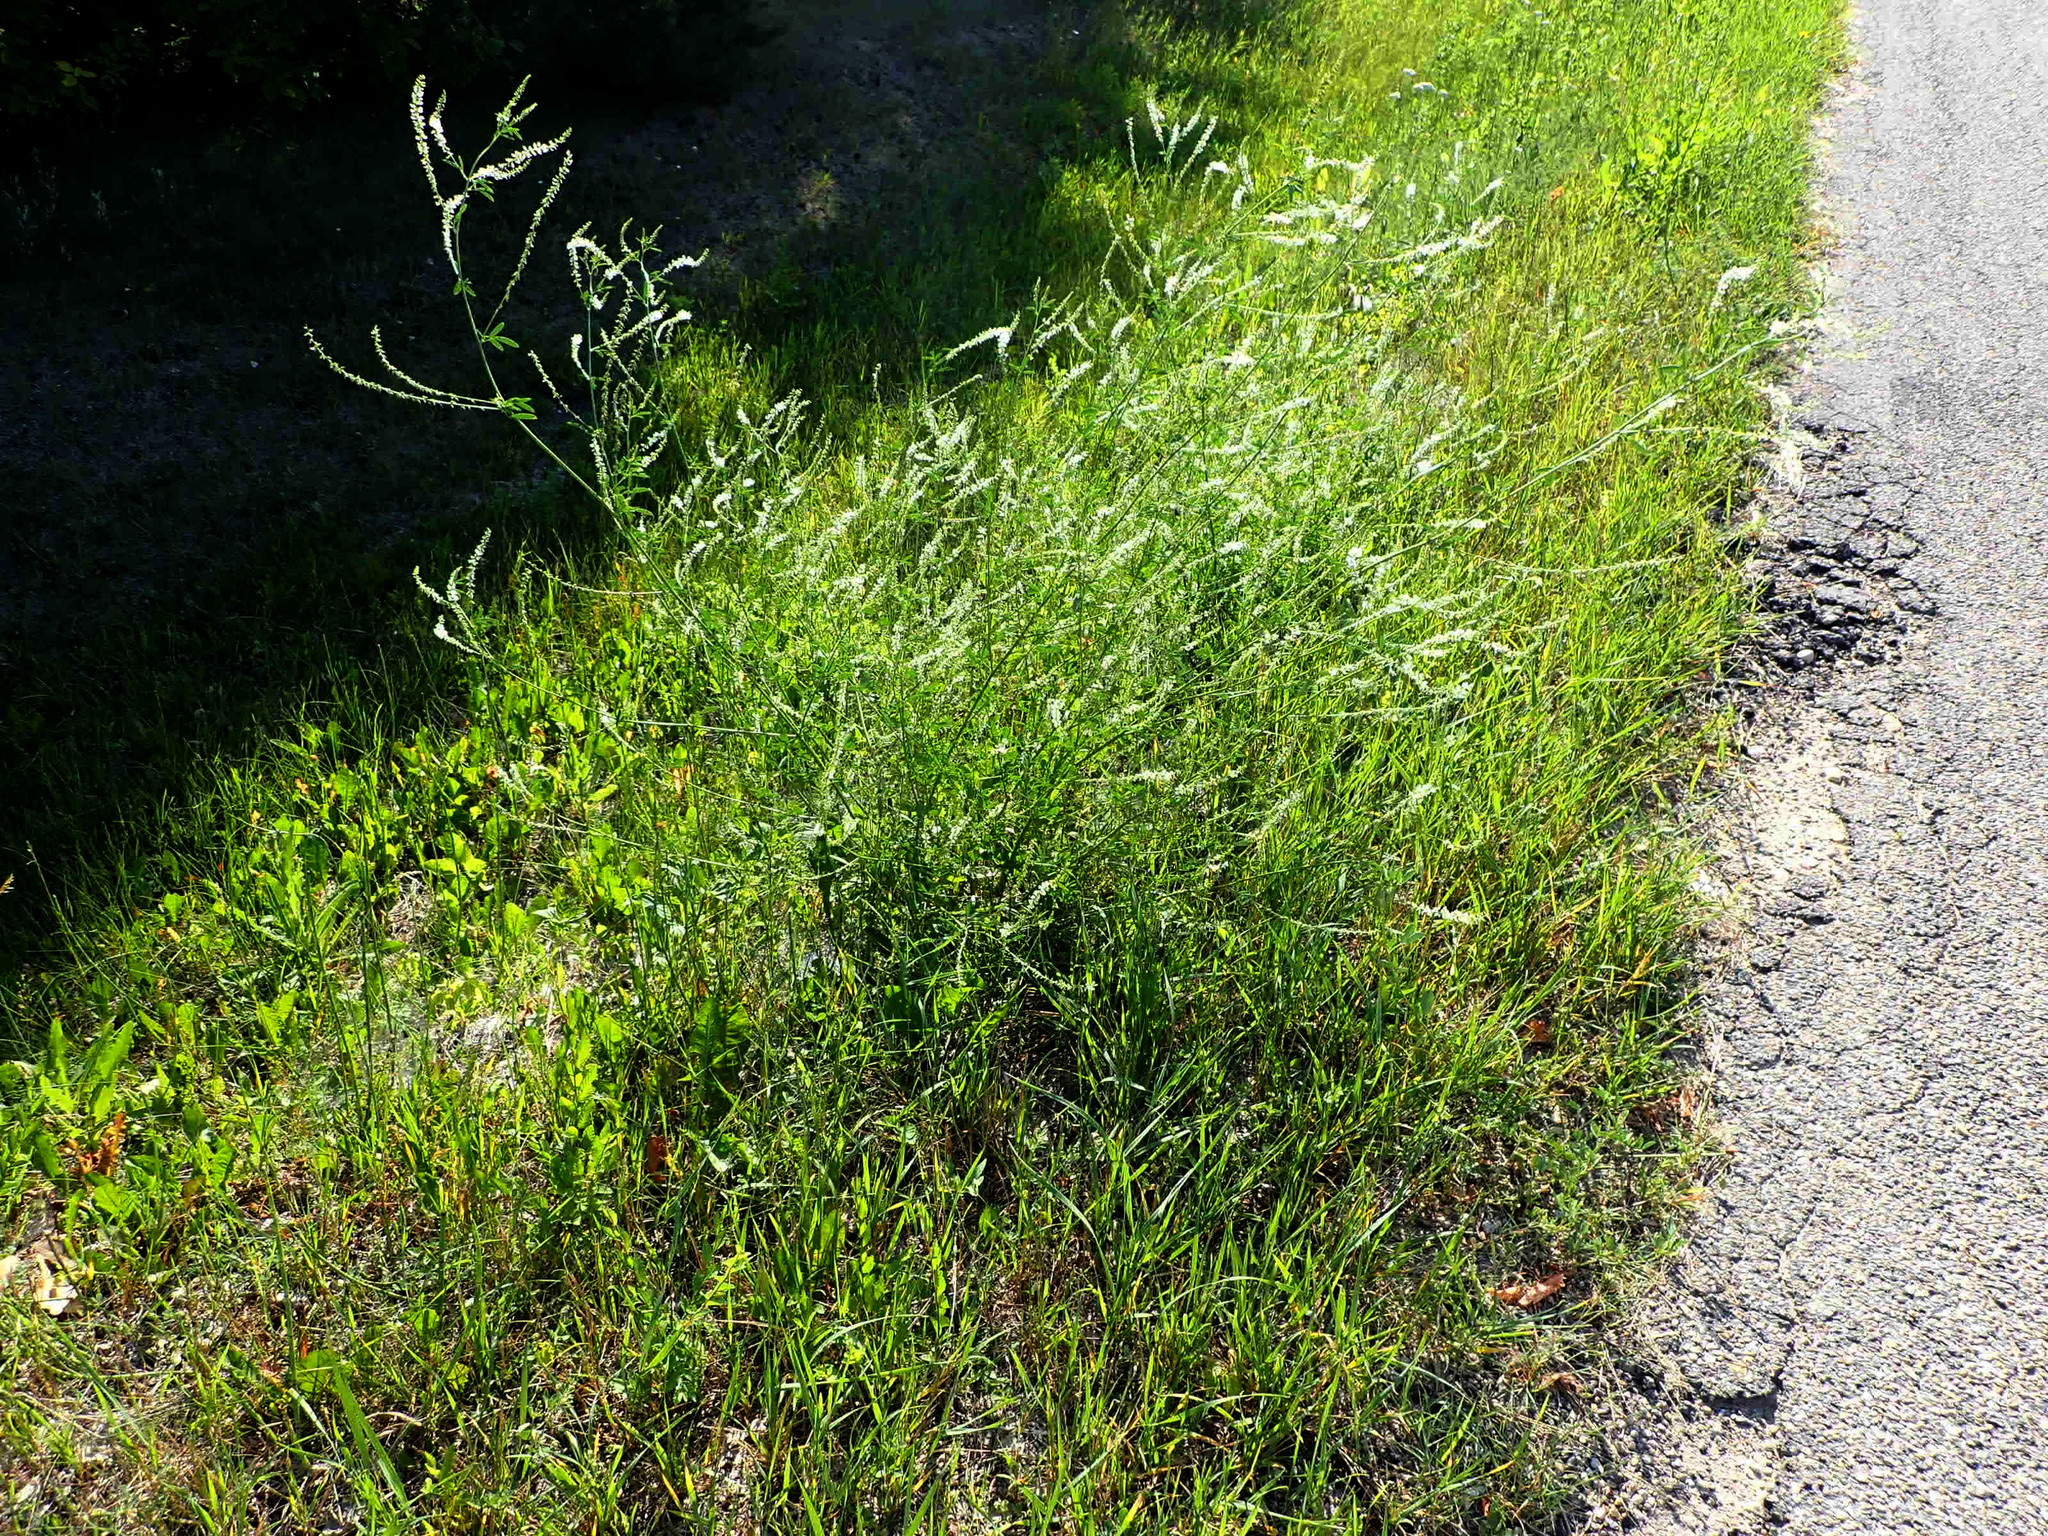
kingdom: Plantae
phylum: Tracheophyta
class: Magnoliopsida
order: Fabales
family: Fabaceae
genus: Melilotus
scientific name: Melilotus albus
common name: White melilot
